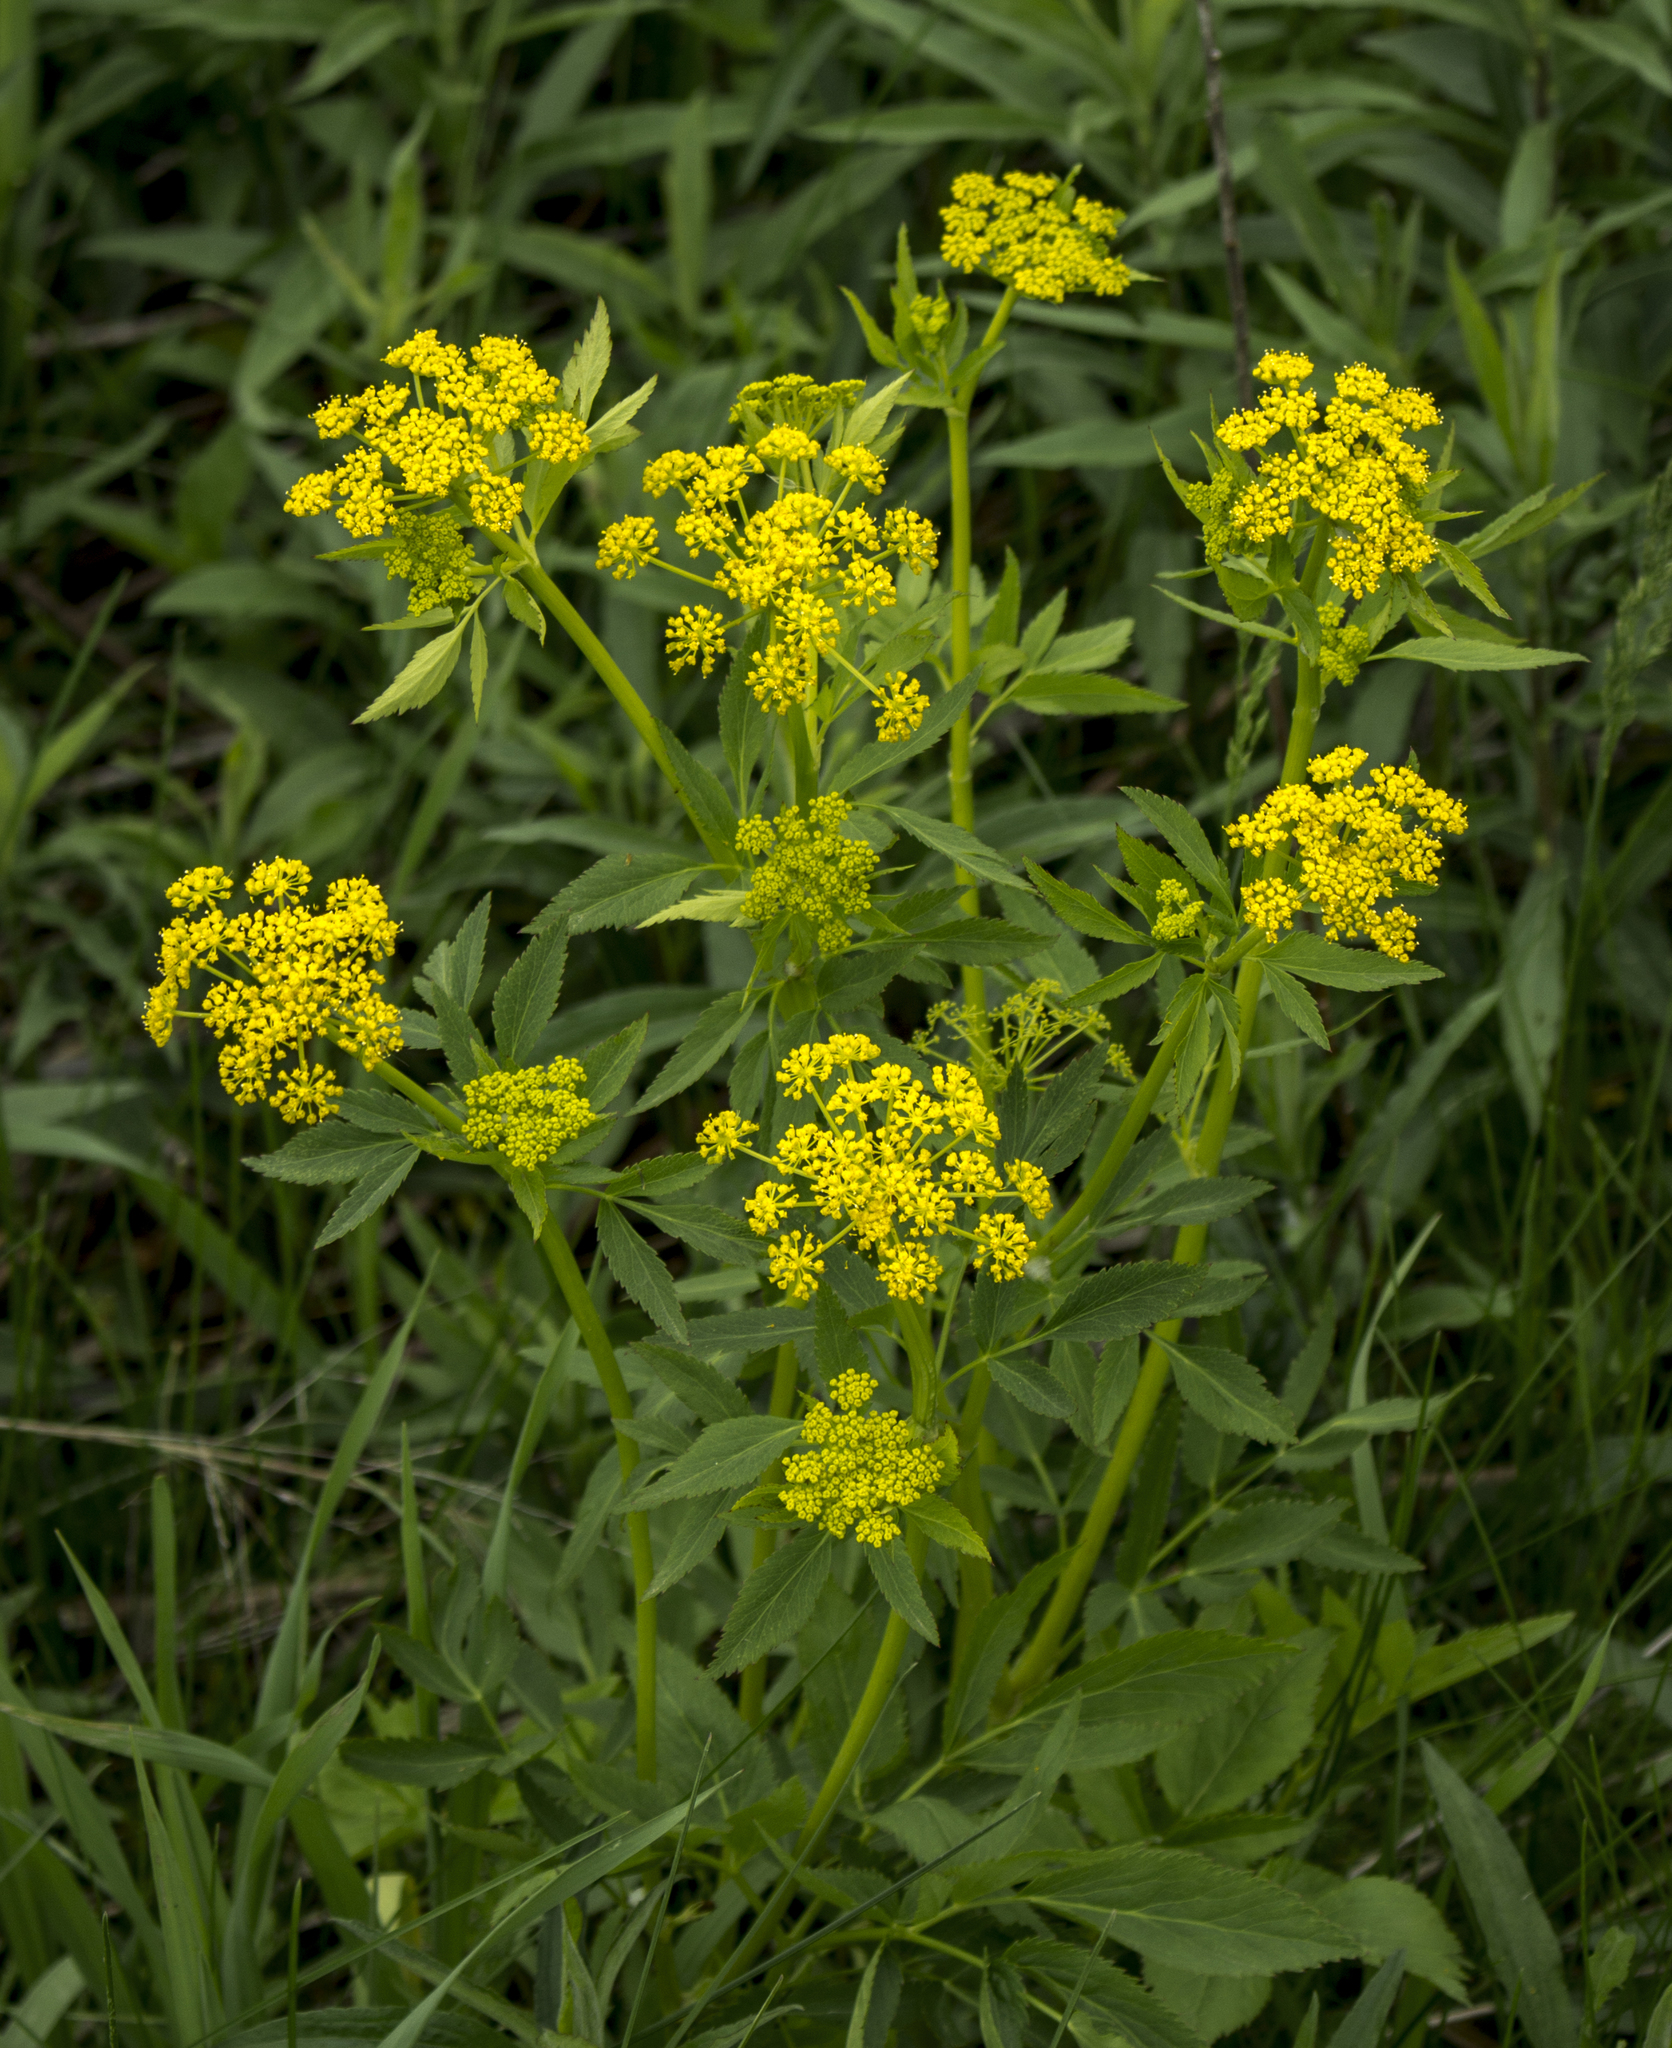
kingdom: Plantae
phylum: Tracheophyta
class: Magnoliopsida
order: Apiales
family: Apiaceae
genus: Zizia
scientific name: Zizia aurea
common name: Golden alexanders
